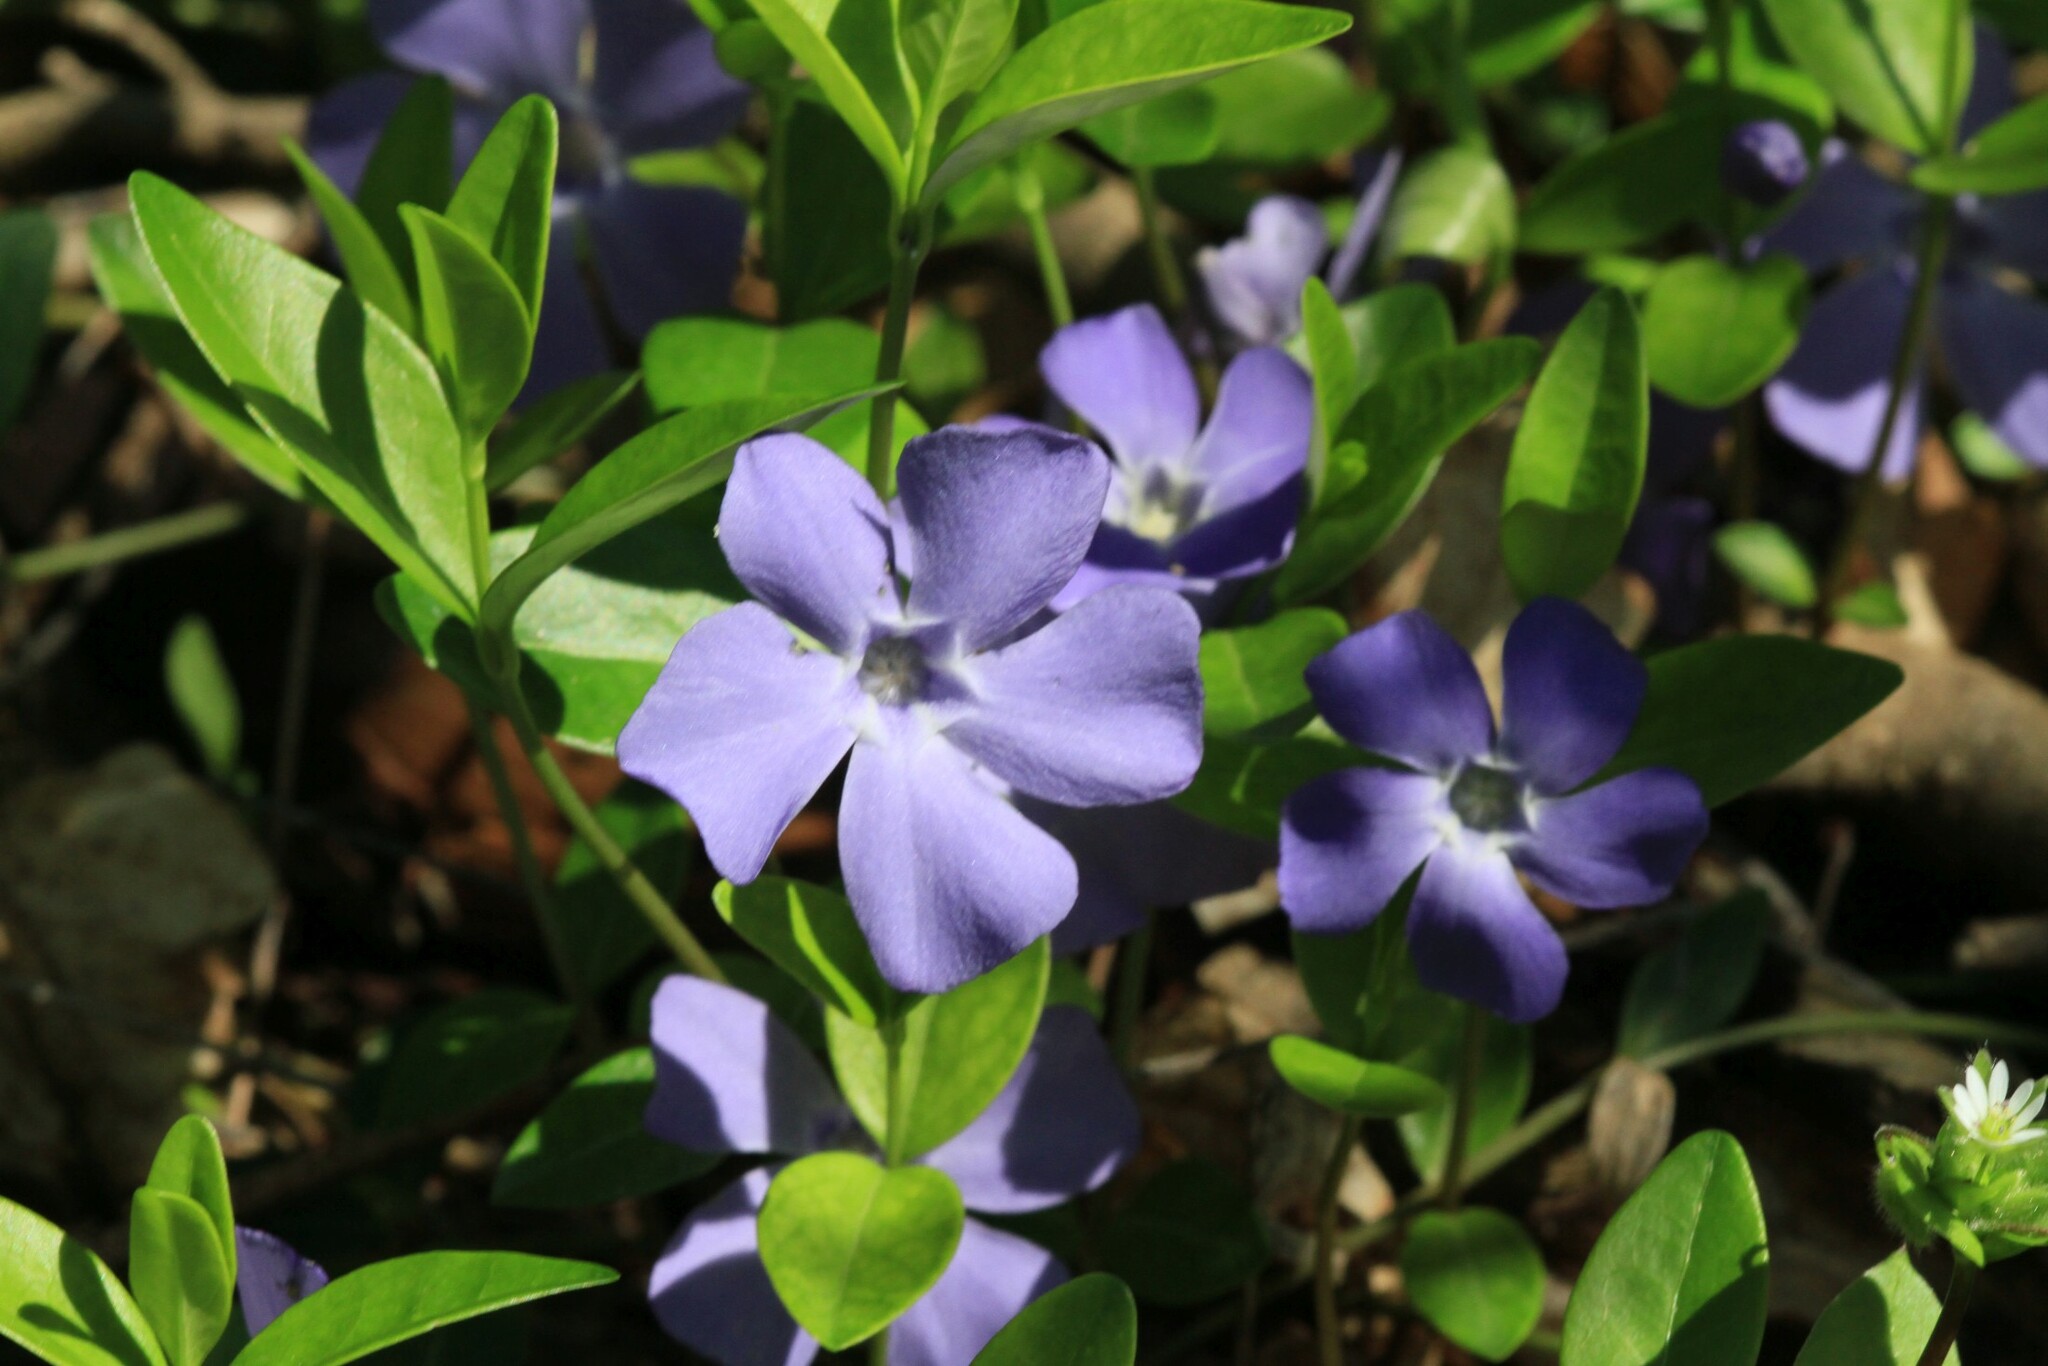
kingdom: Plantae
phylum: Tracheophyta
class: Magnoliopsida
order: Gentianales
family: Apocynaceae
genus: Vinca
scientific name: Vinca minor
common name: Lesser periwinkle
